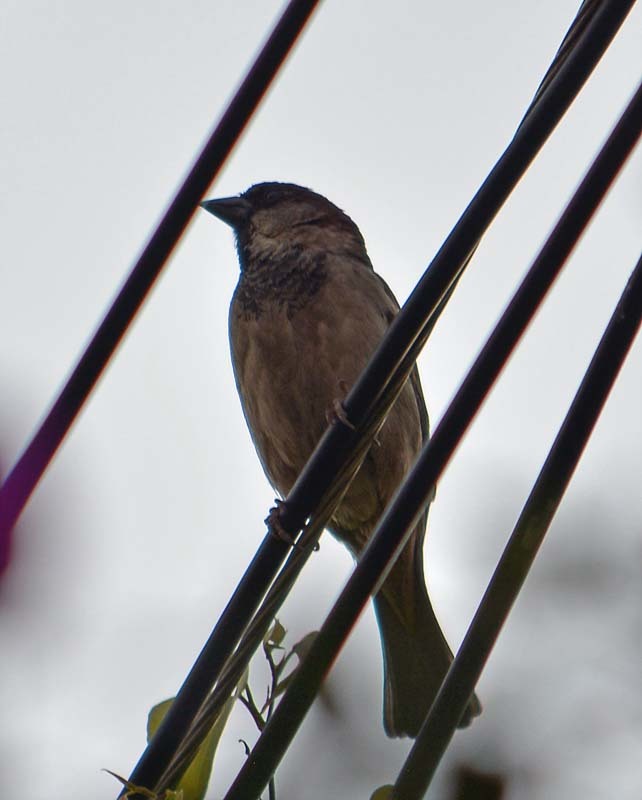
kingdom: Animalia
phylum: Chordata
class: Aves
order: Passeriformes
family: Passeridae
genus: Passer
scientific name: Passer domesticus
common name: House sparrow
